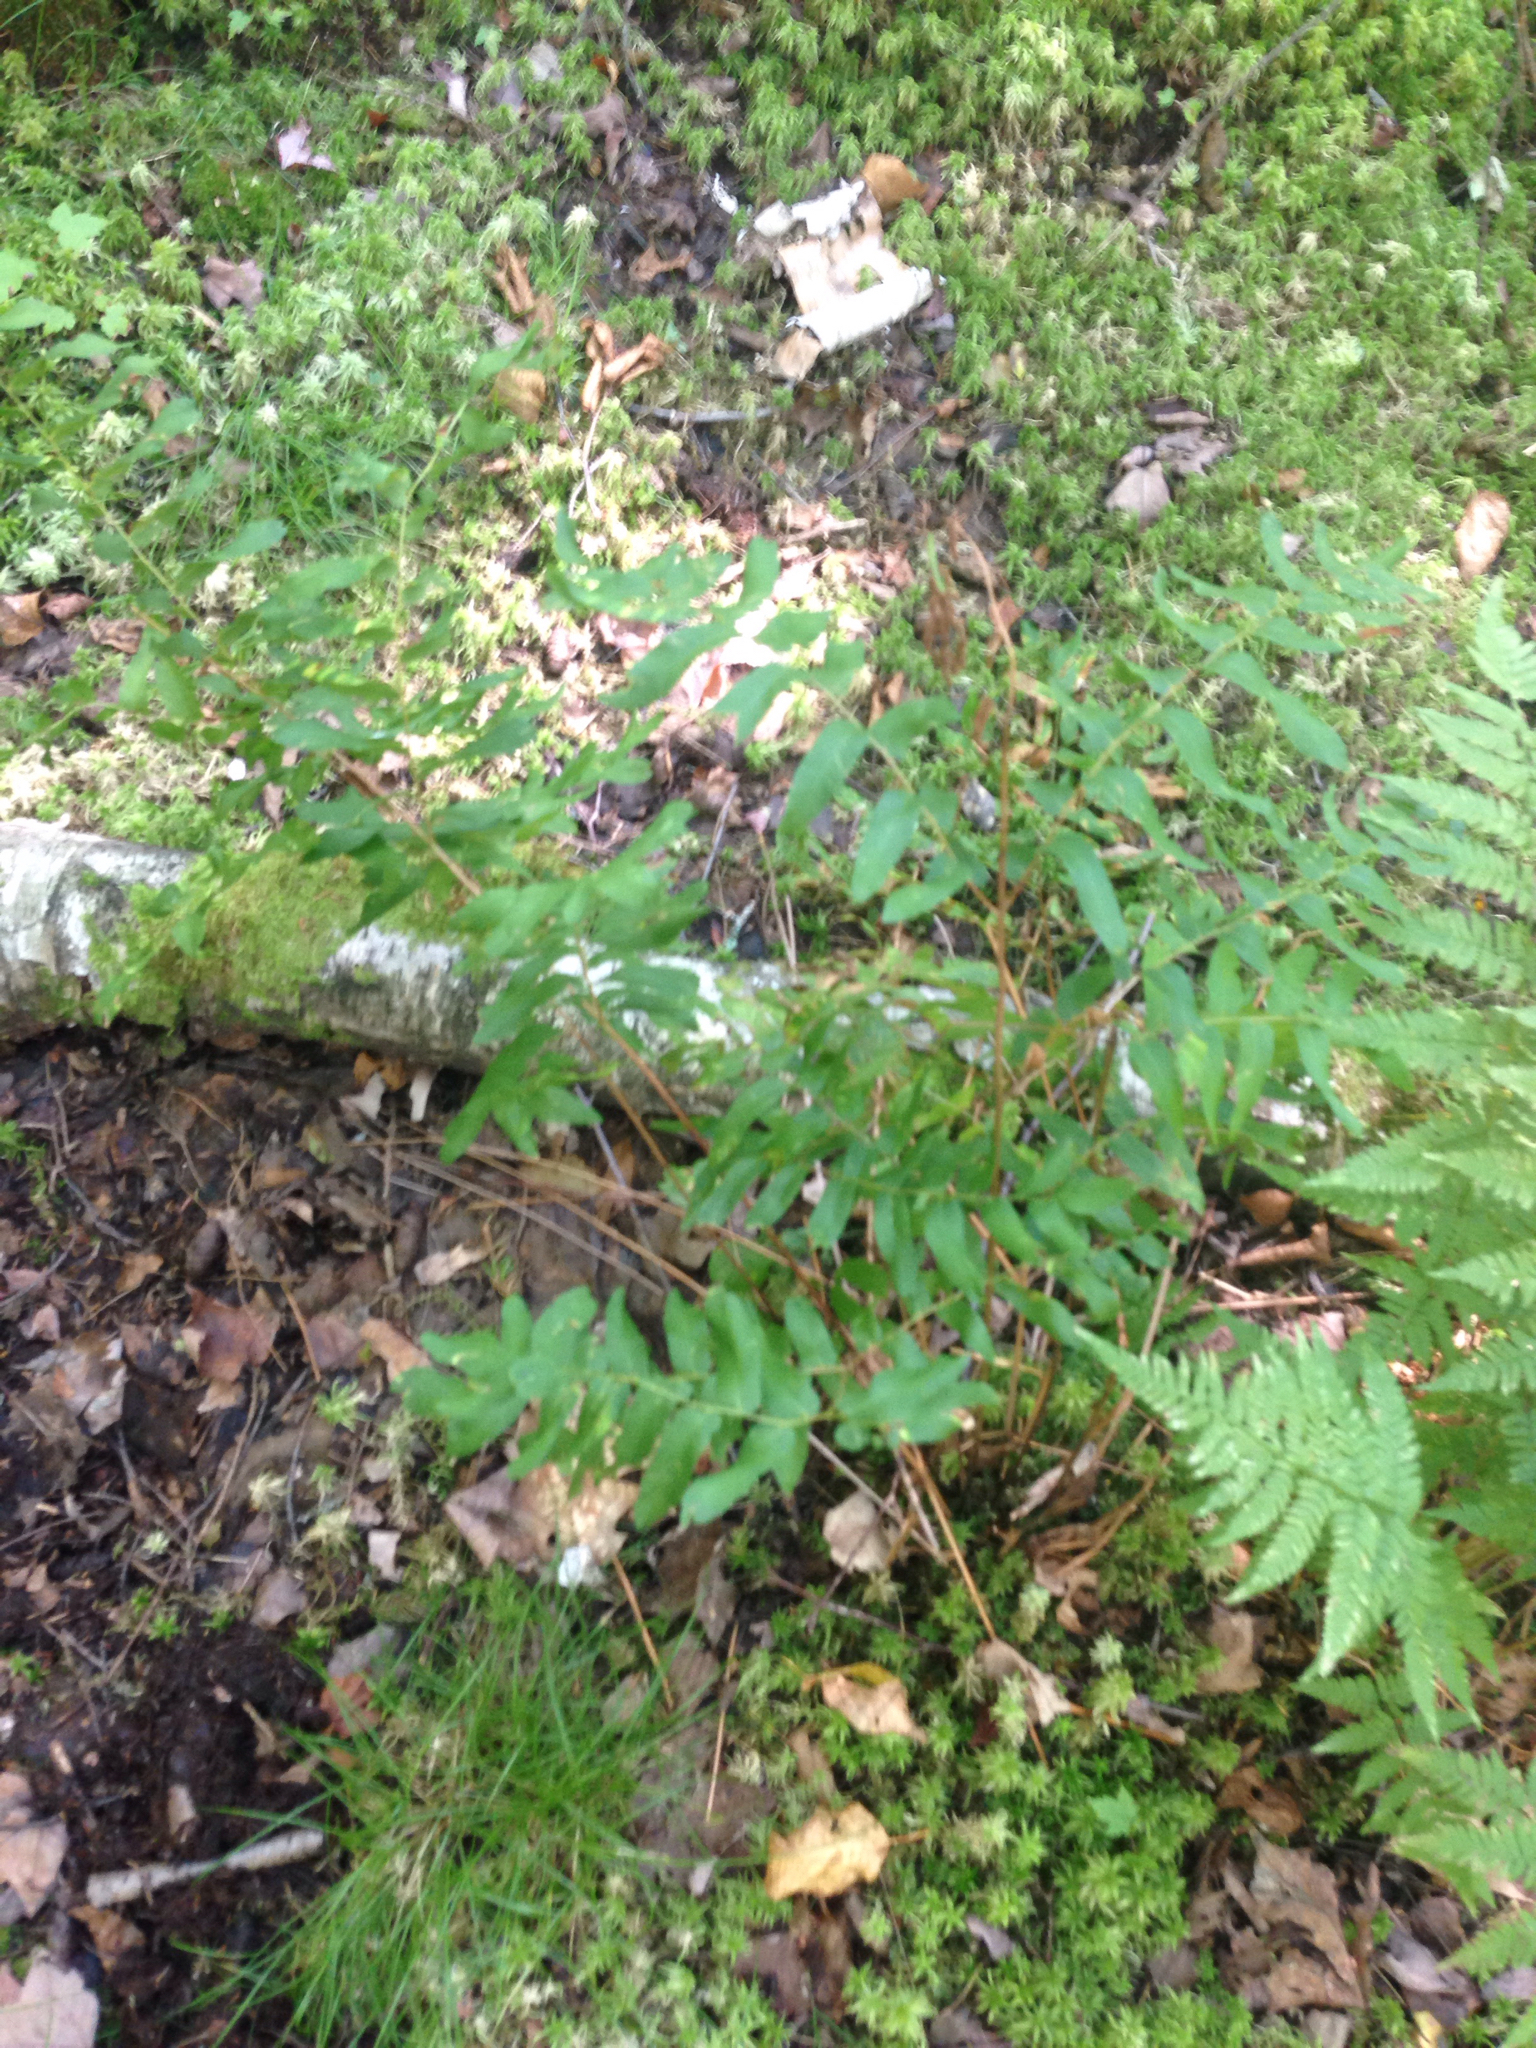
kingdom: Plantae
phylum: Tracheophyta
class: Polypodiopsida
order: Osmundales
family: Osmundaceae
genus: Osmunda
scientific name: Osmunda spectabilis
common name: American royal fern
